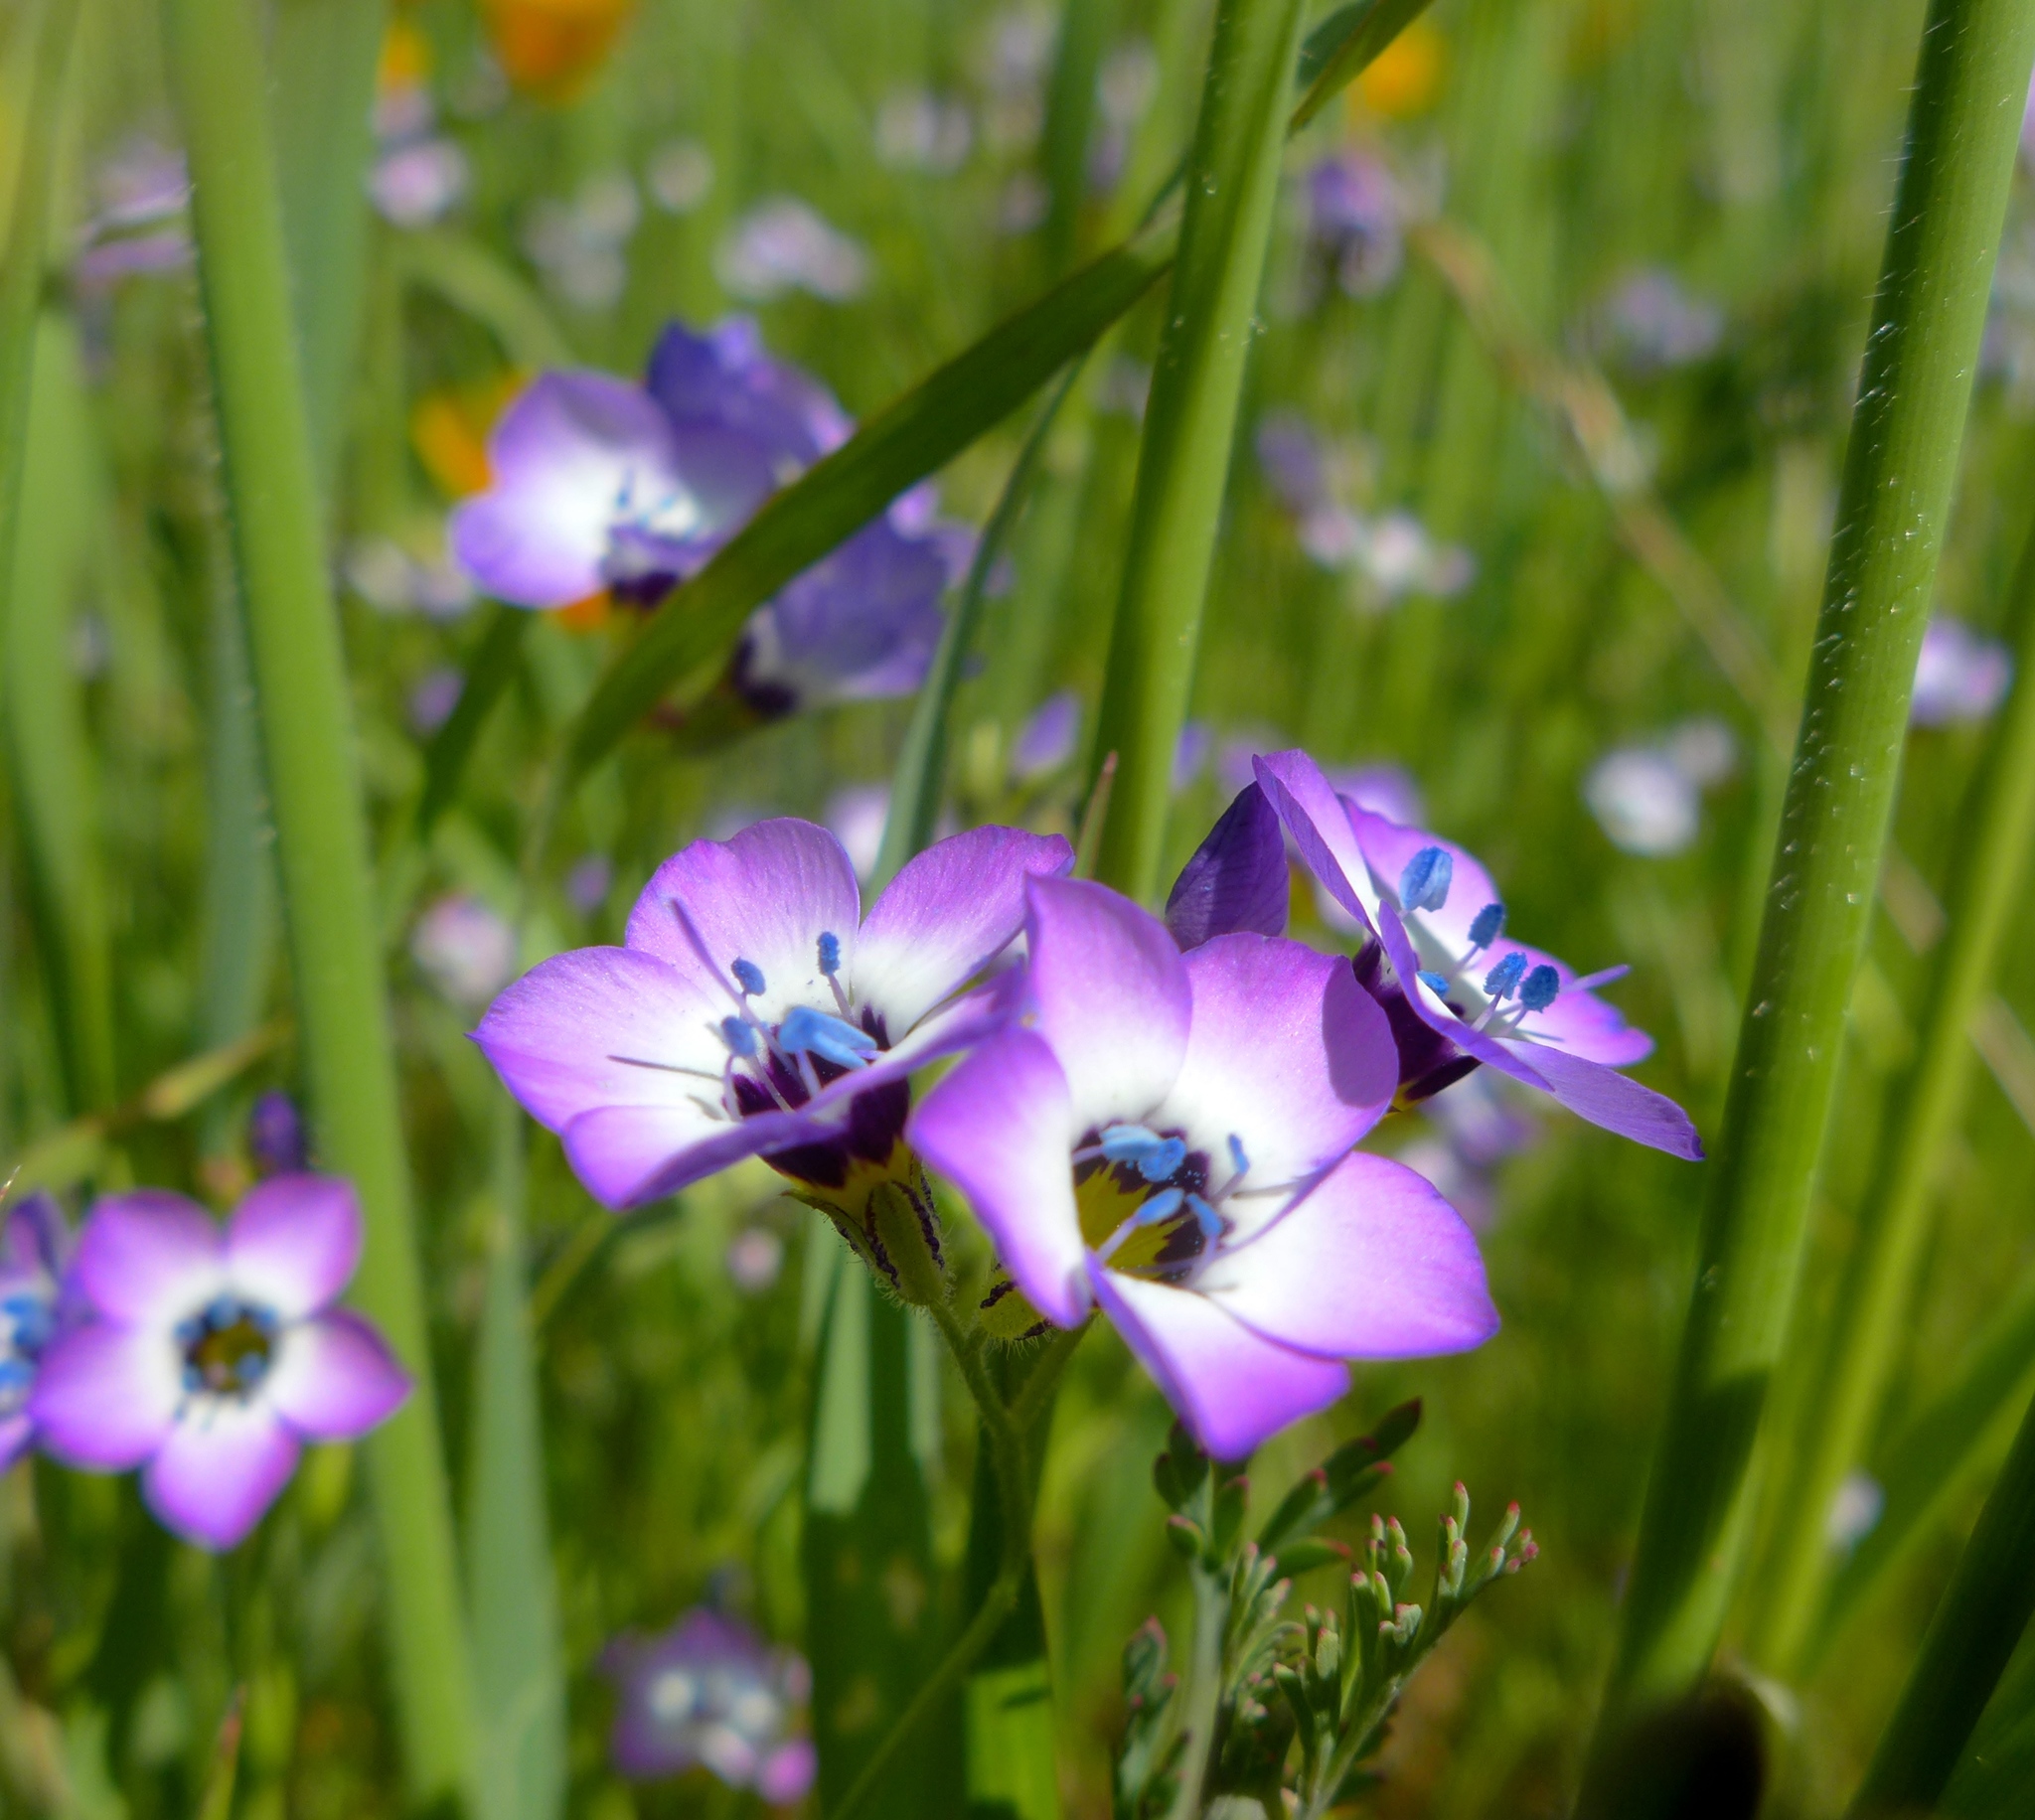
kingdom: Plantae
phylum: Tracheophyta
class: Magnoliopsida
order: Ericales
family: Polemoniaceae
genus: Gilia
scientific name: Gilia tricolor
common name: Bird's-eyes
